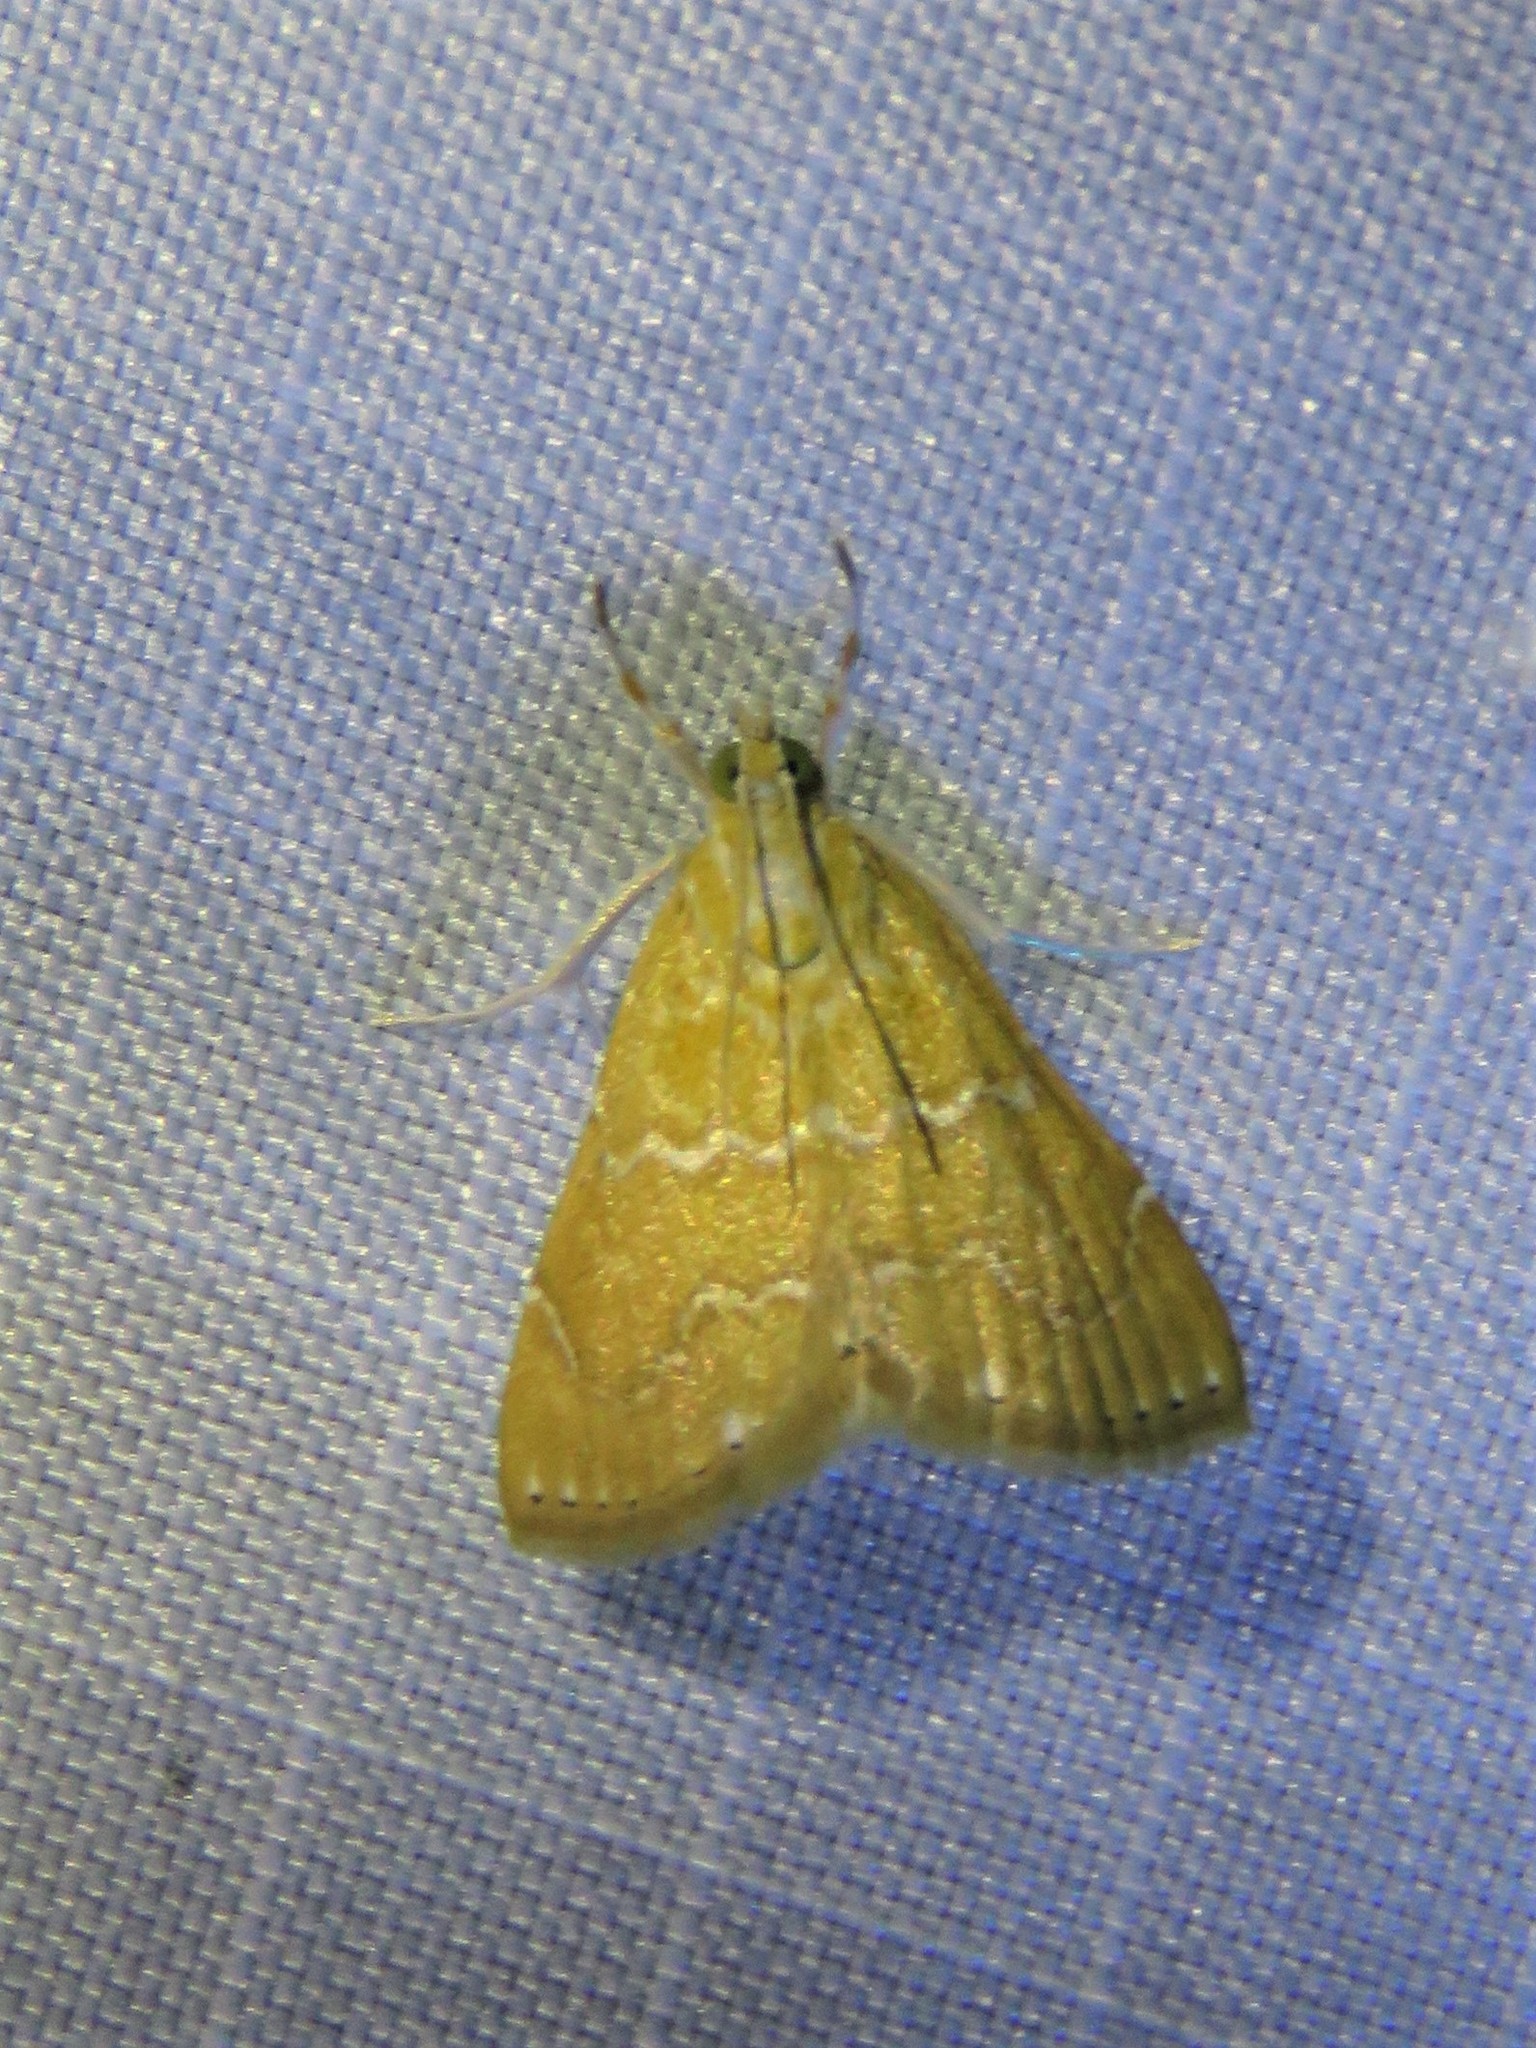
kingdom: Animalia
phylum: Arthropoda
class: Insecta
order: Lepidoptera
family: Crambidae
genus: Glaphyria
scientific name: Glaphyria sesquistrialis
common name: White-roped glaphyria
